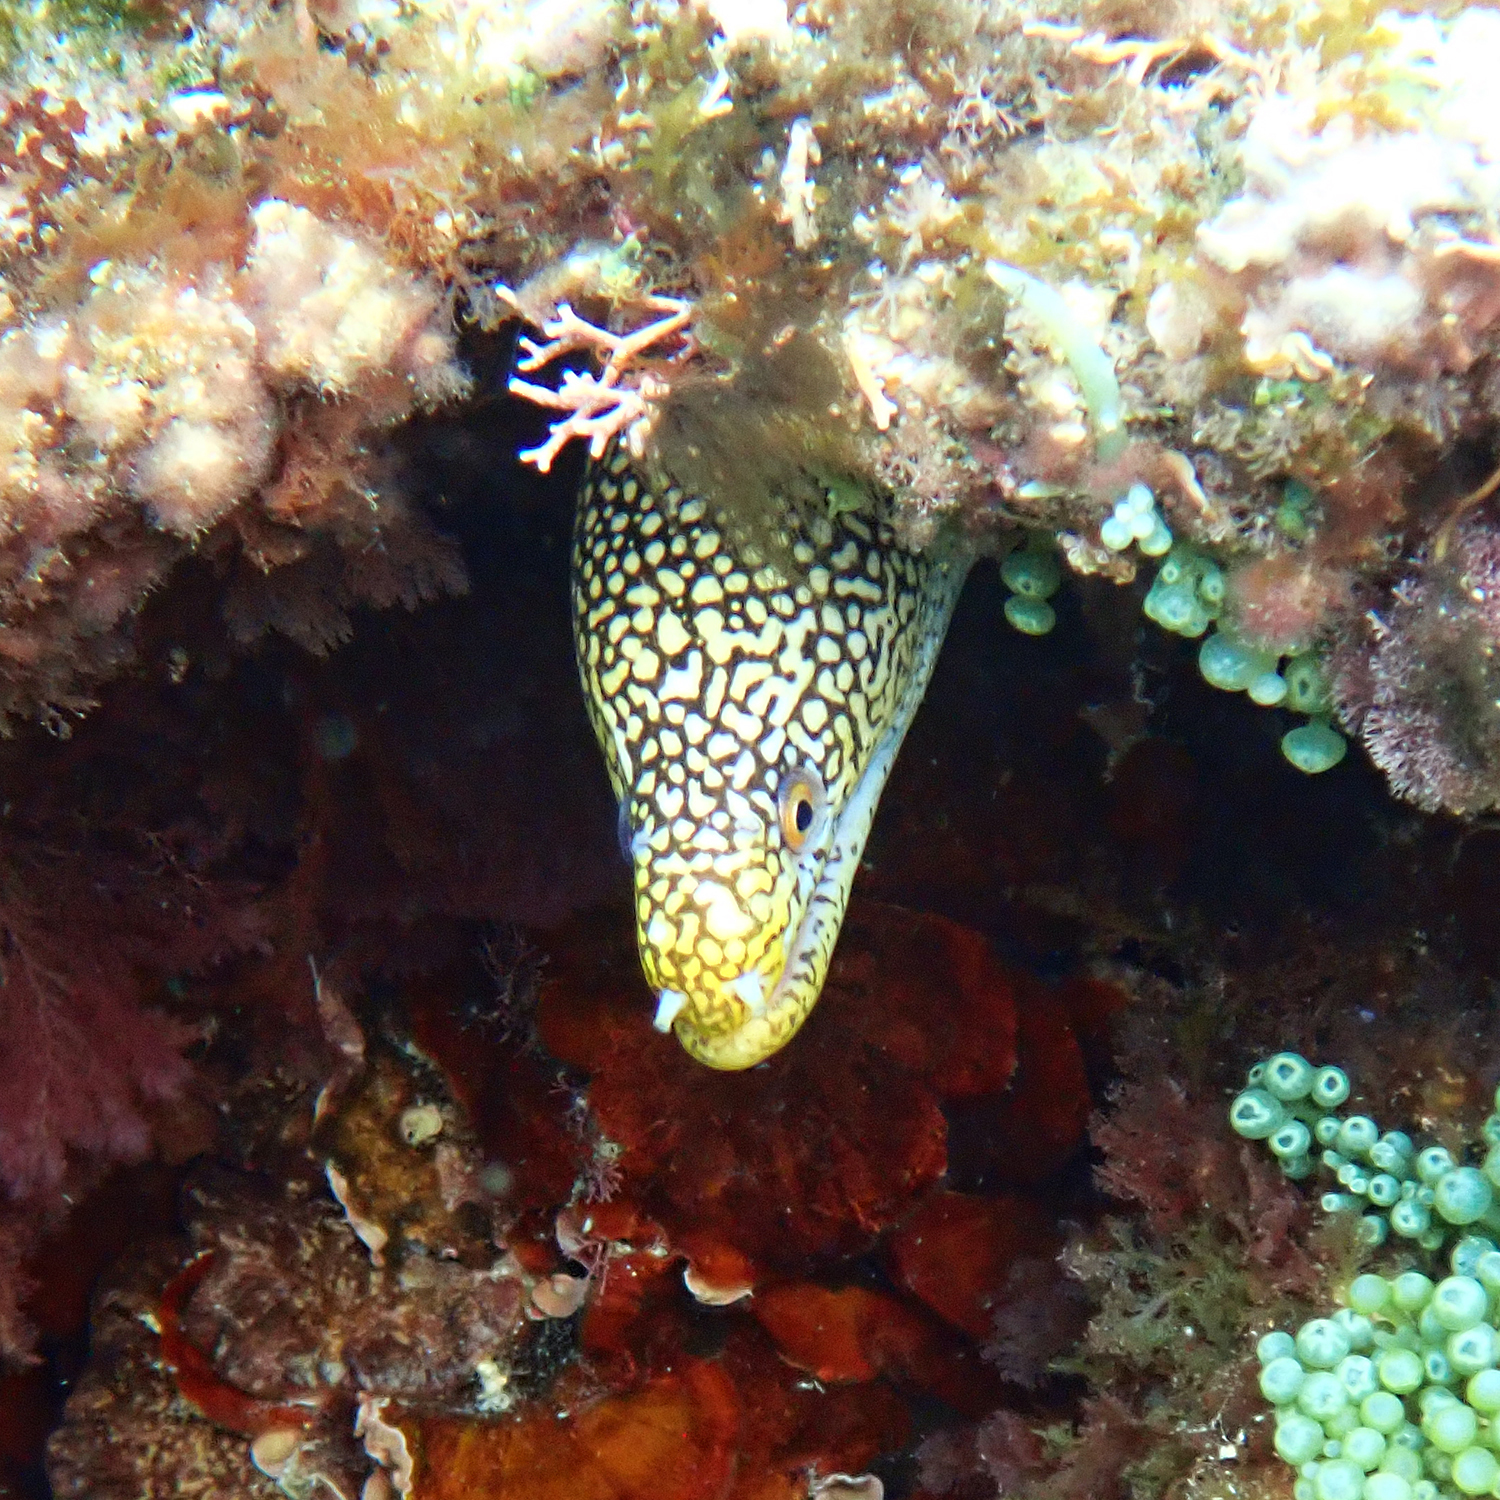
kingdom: Animalia
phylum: Chordata
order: Anguilliformes
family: Muraenidae
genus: Gymnothorax
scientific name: Gymnothorax eurostus
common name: Stout moray
